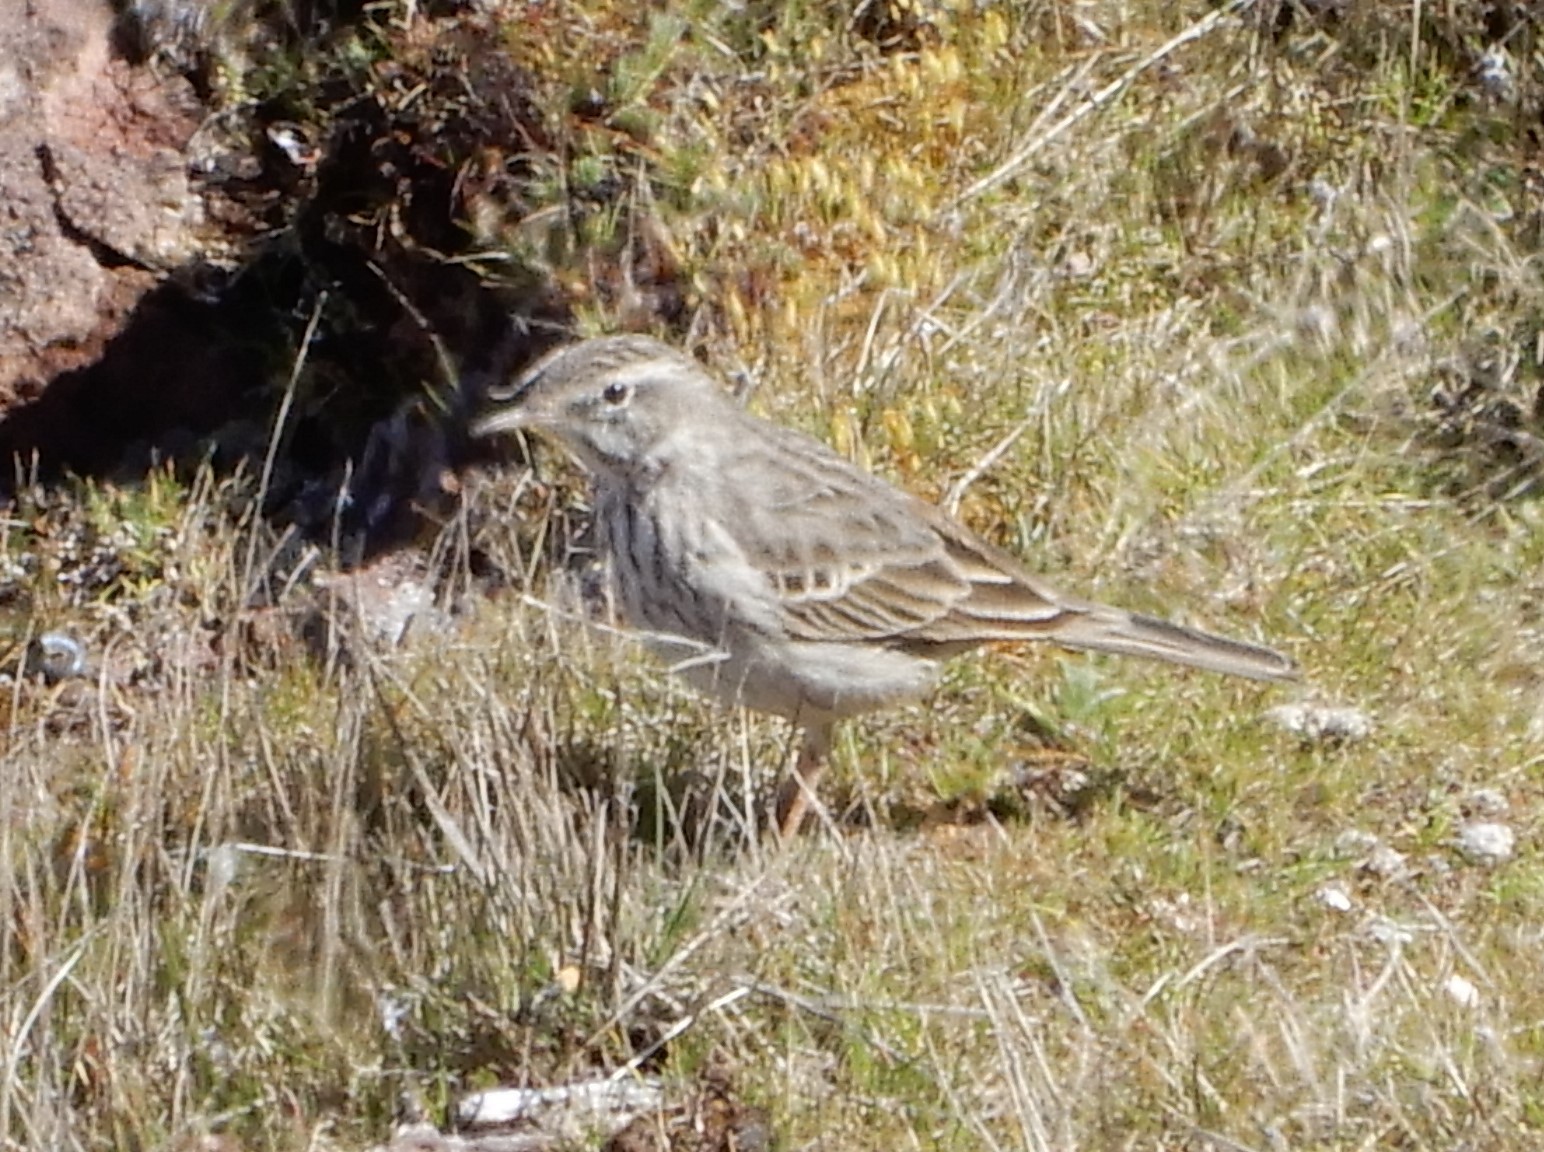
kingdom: Animalia
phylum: Chordata
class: Aves
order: Passeriformes
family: Motacillidae
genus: Anthus
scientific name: Anthus berthelotii
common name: Berthelot's pipit
